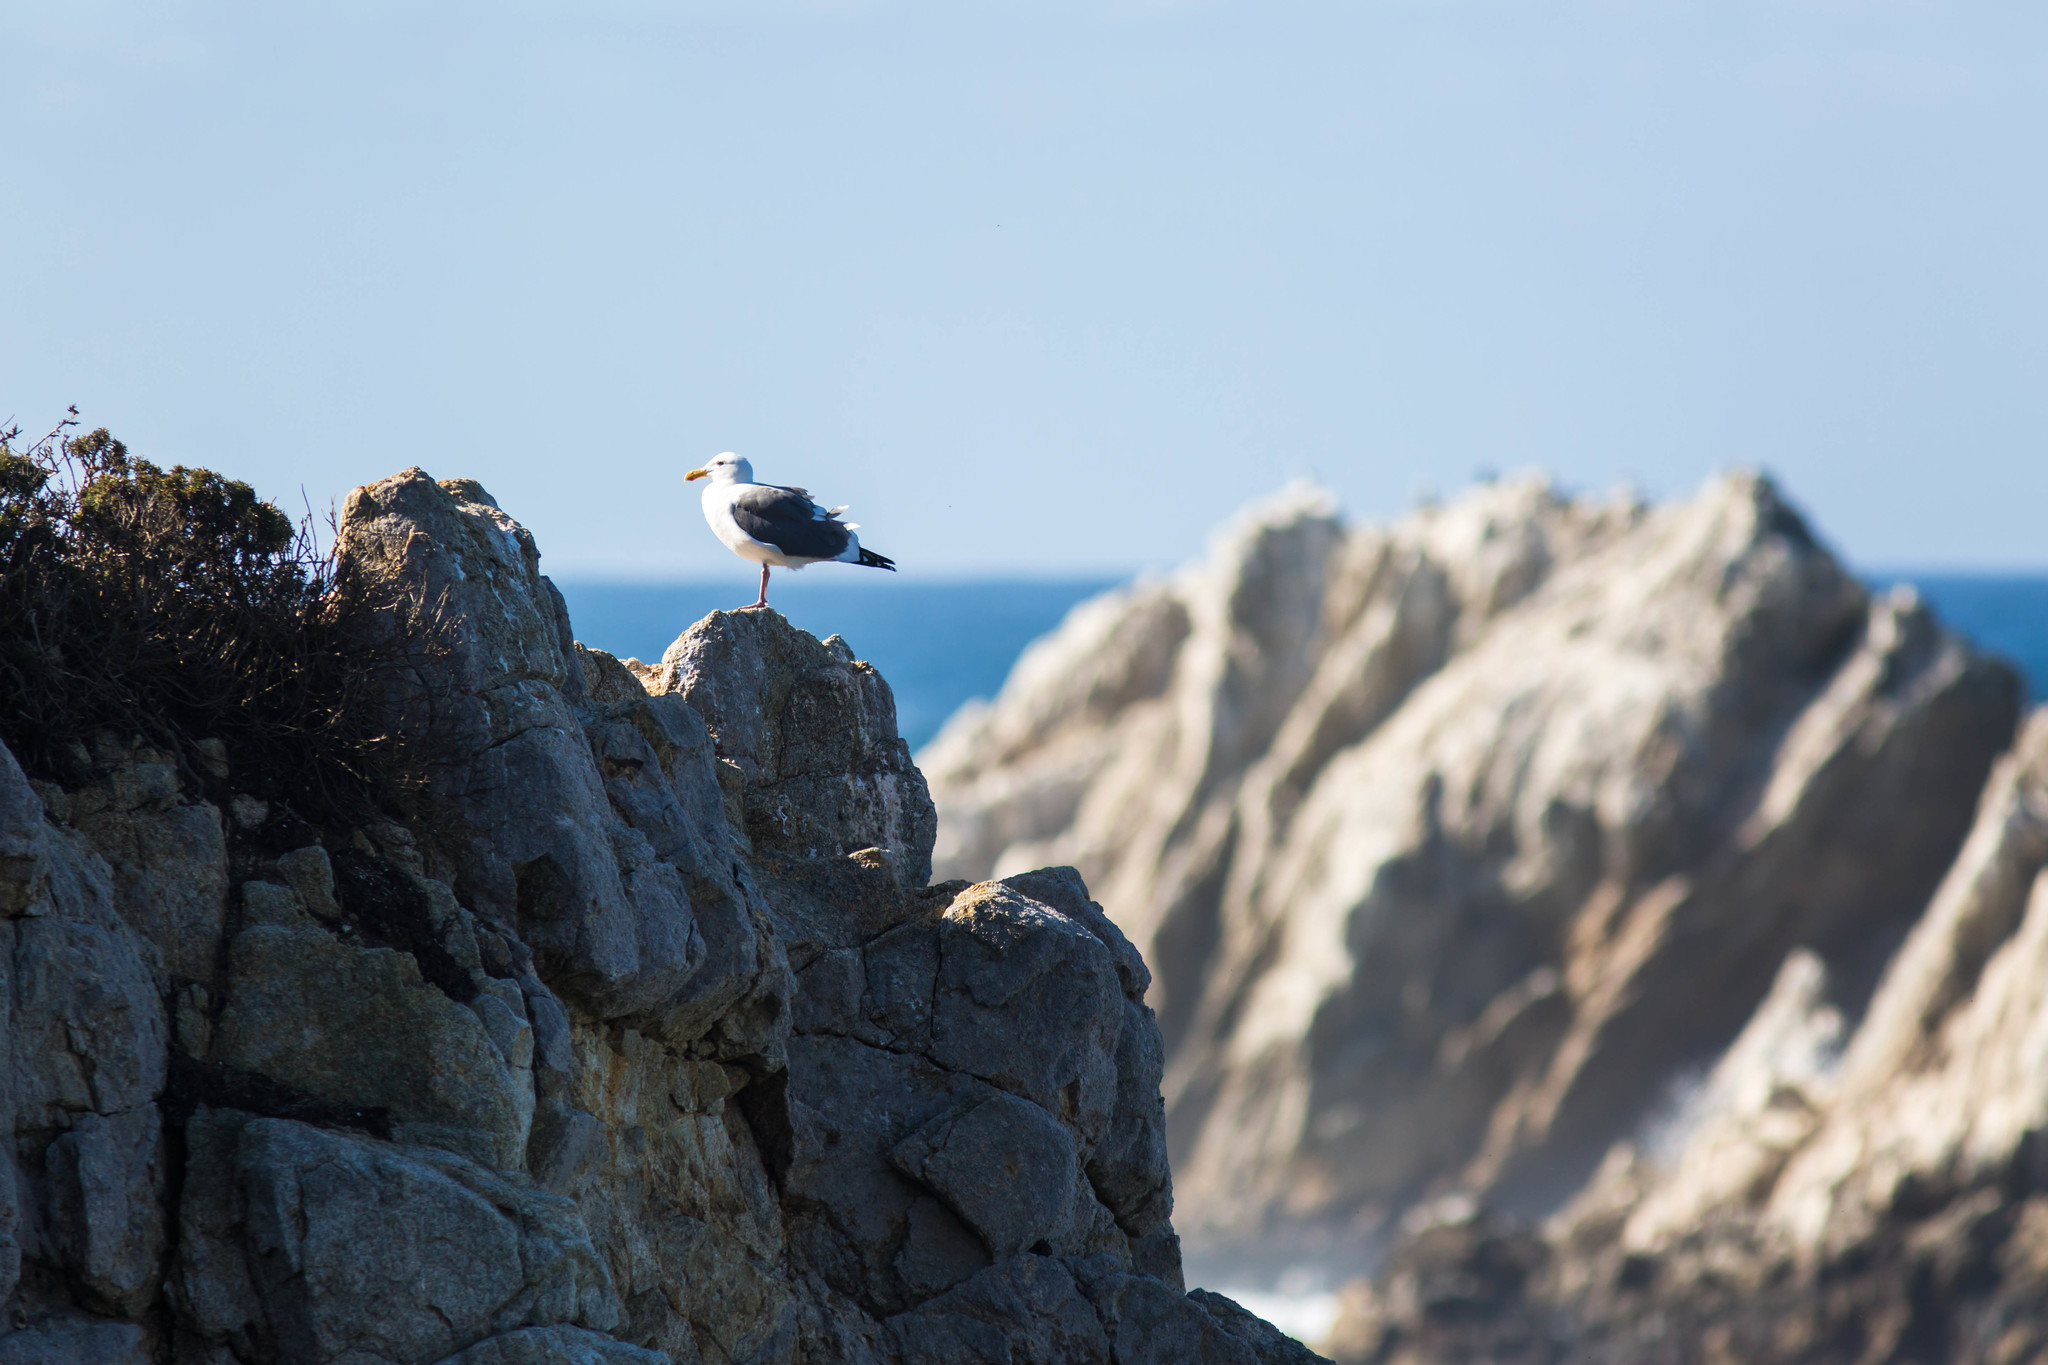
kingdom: Animalia
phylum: Chordata
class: Aves
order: Charadriiformes
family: Laridae
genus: Larus
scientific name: Larus occidentalis
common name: Western gull
